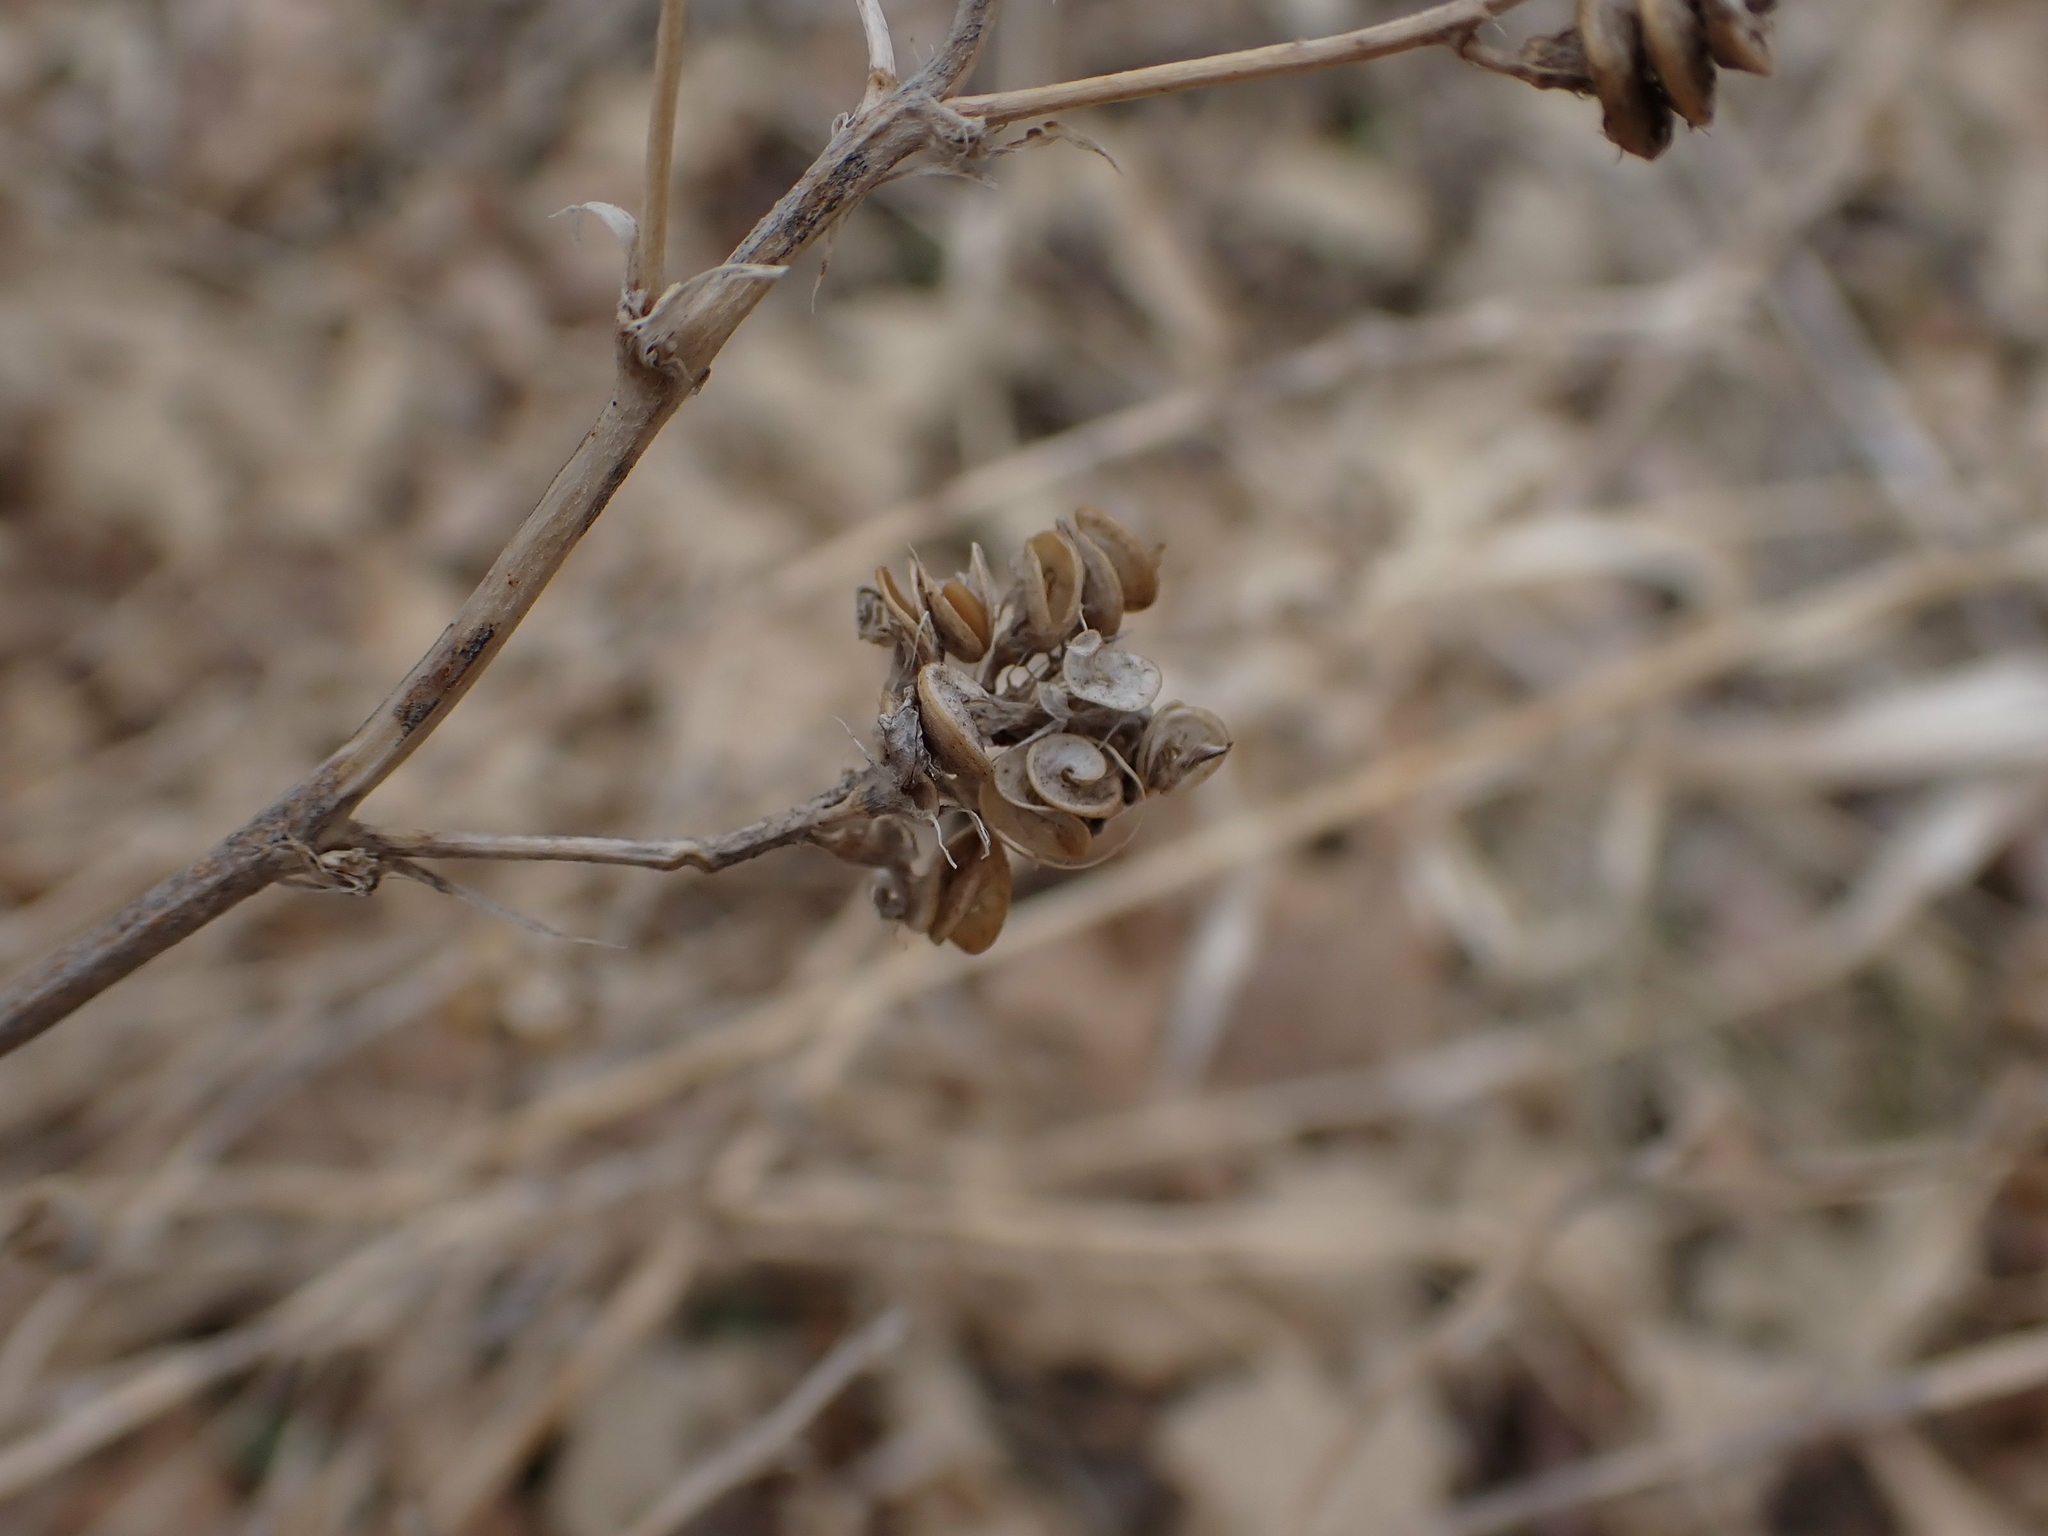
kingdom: Plantae
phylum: Tracheophyta
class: Magnoliopsida
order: Fabales
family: Fabaceae
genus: Medicago
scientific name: Medicago sativa
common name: Alfalfa
